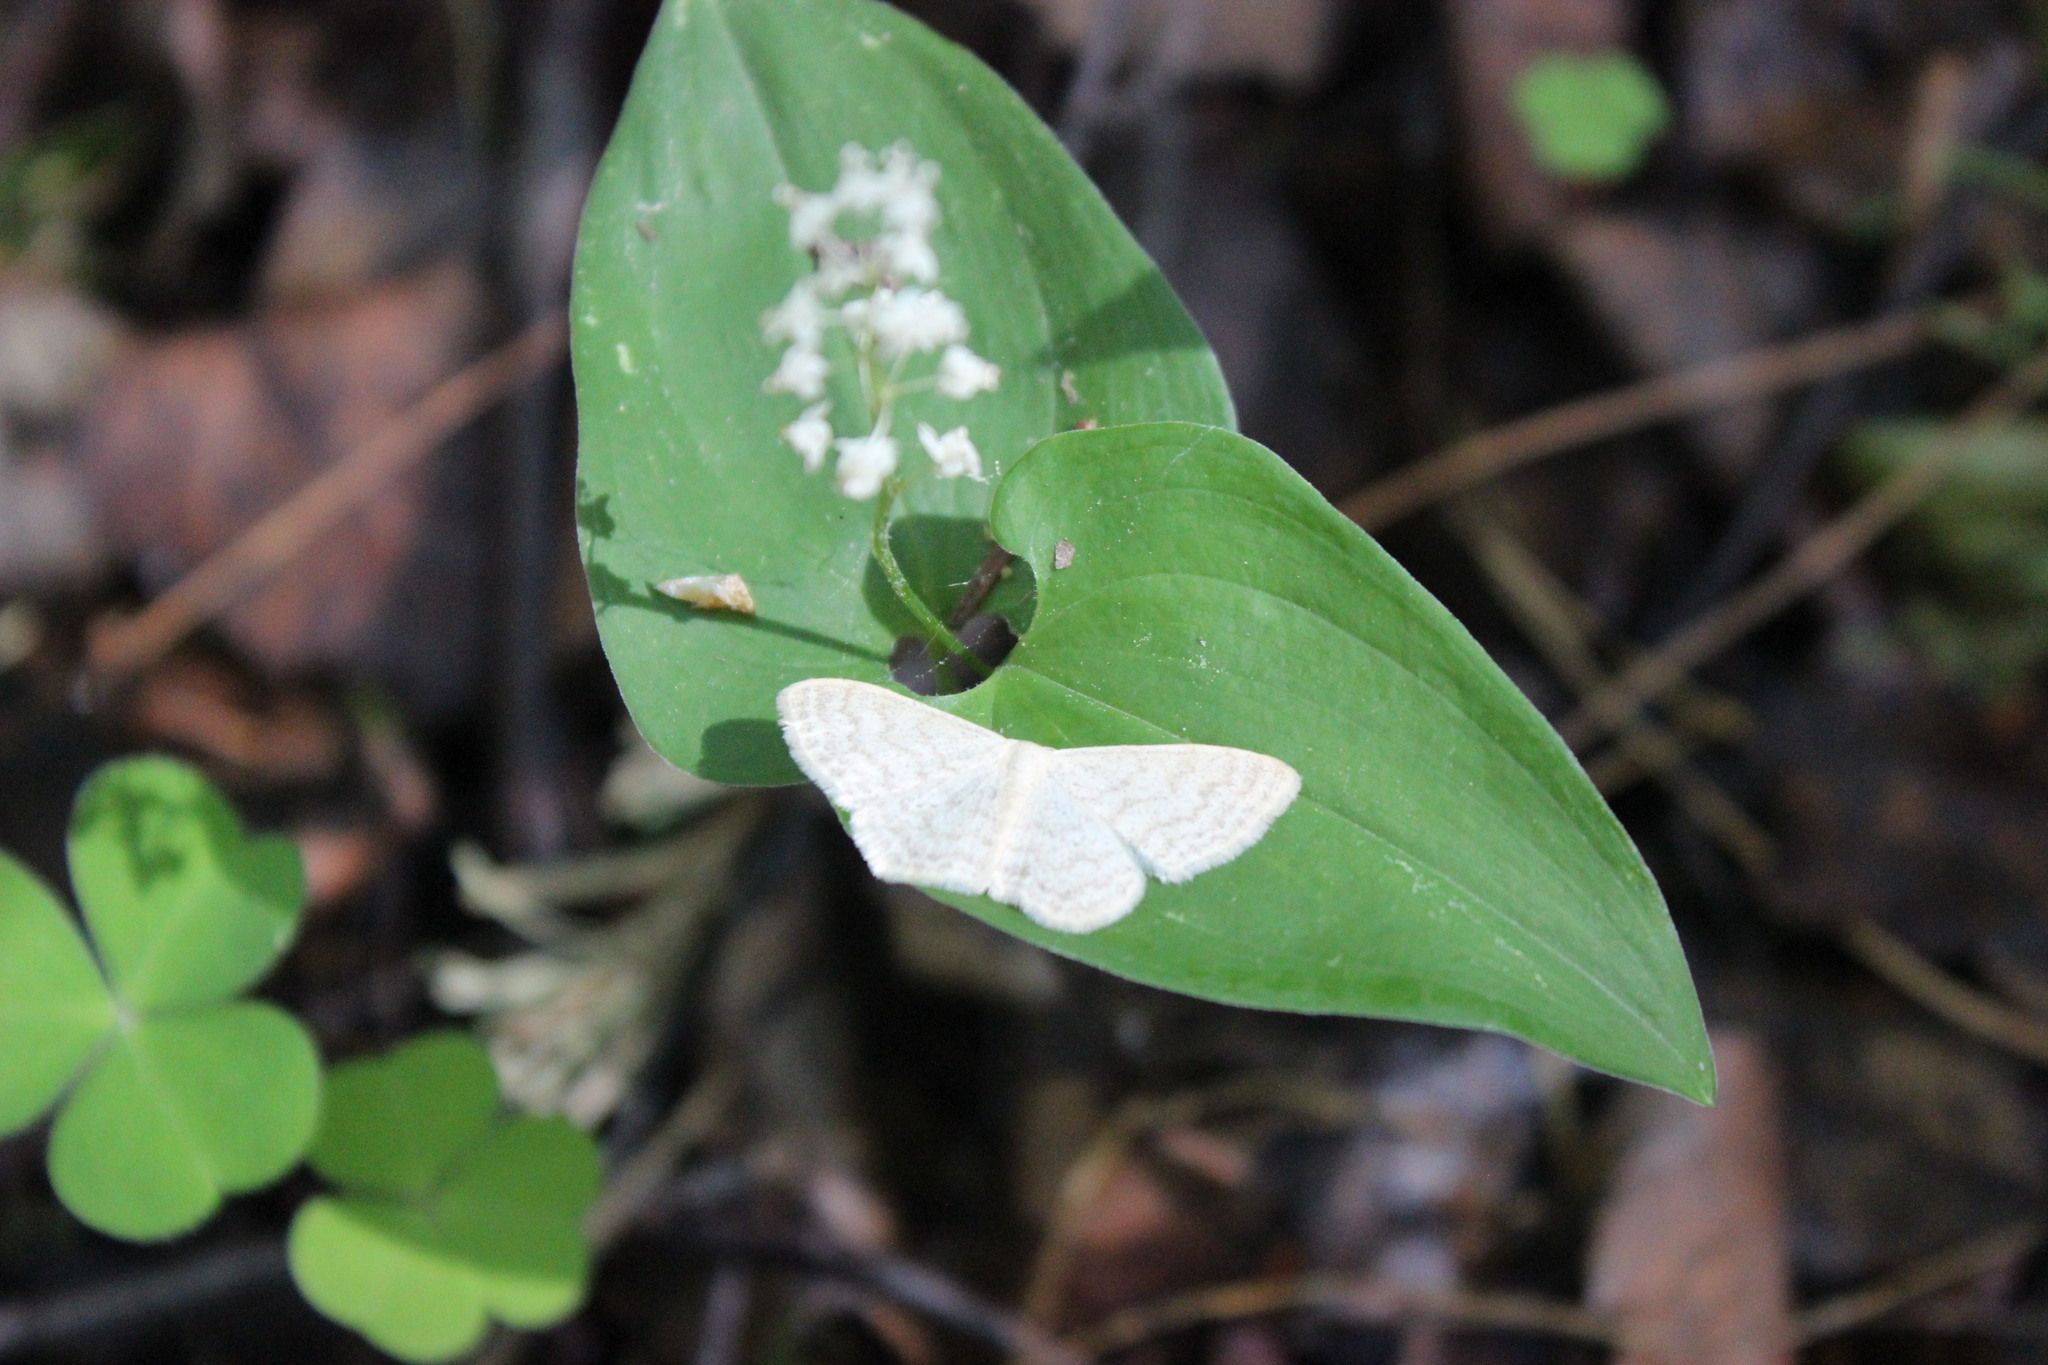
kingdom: Animalia
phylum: Arthropoda
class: Insecta
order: Lepidoptera
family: Geometridae
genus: Scopula
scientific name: Scopula floslactata
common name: Cream wave
